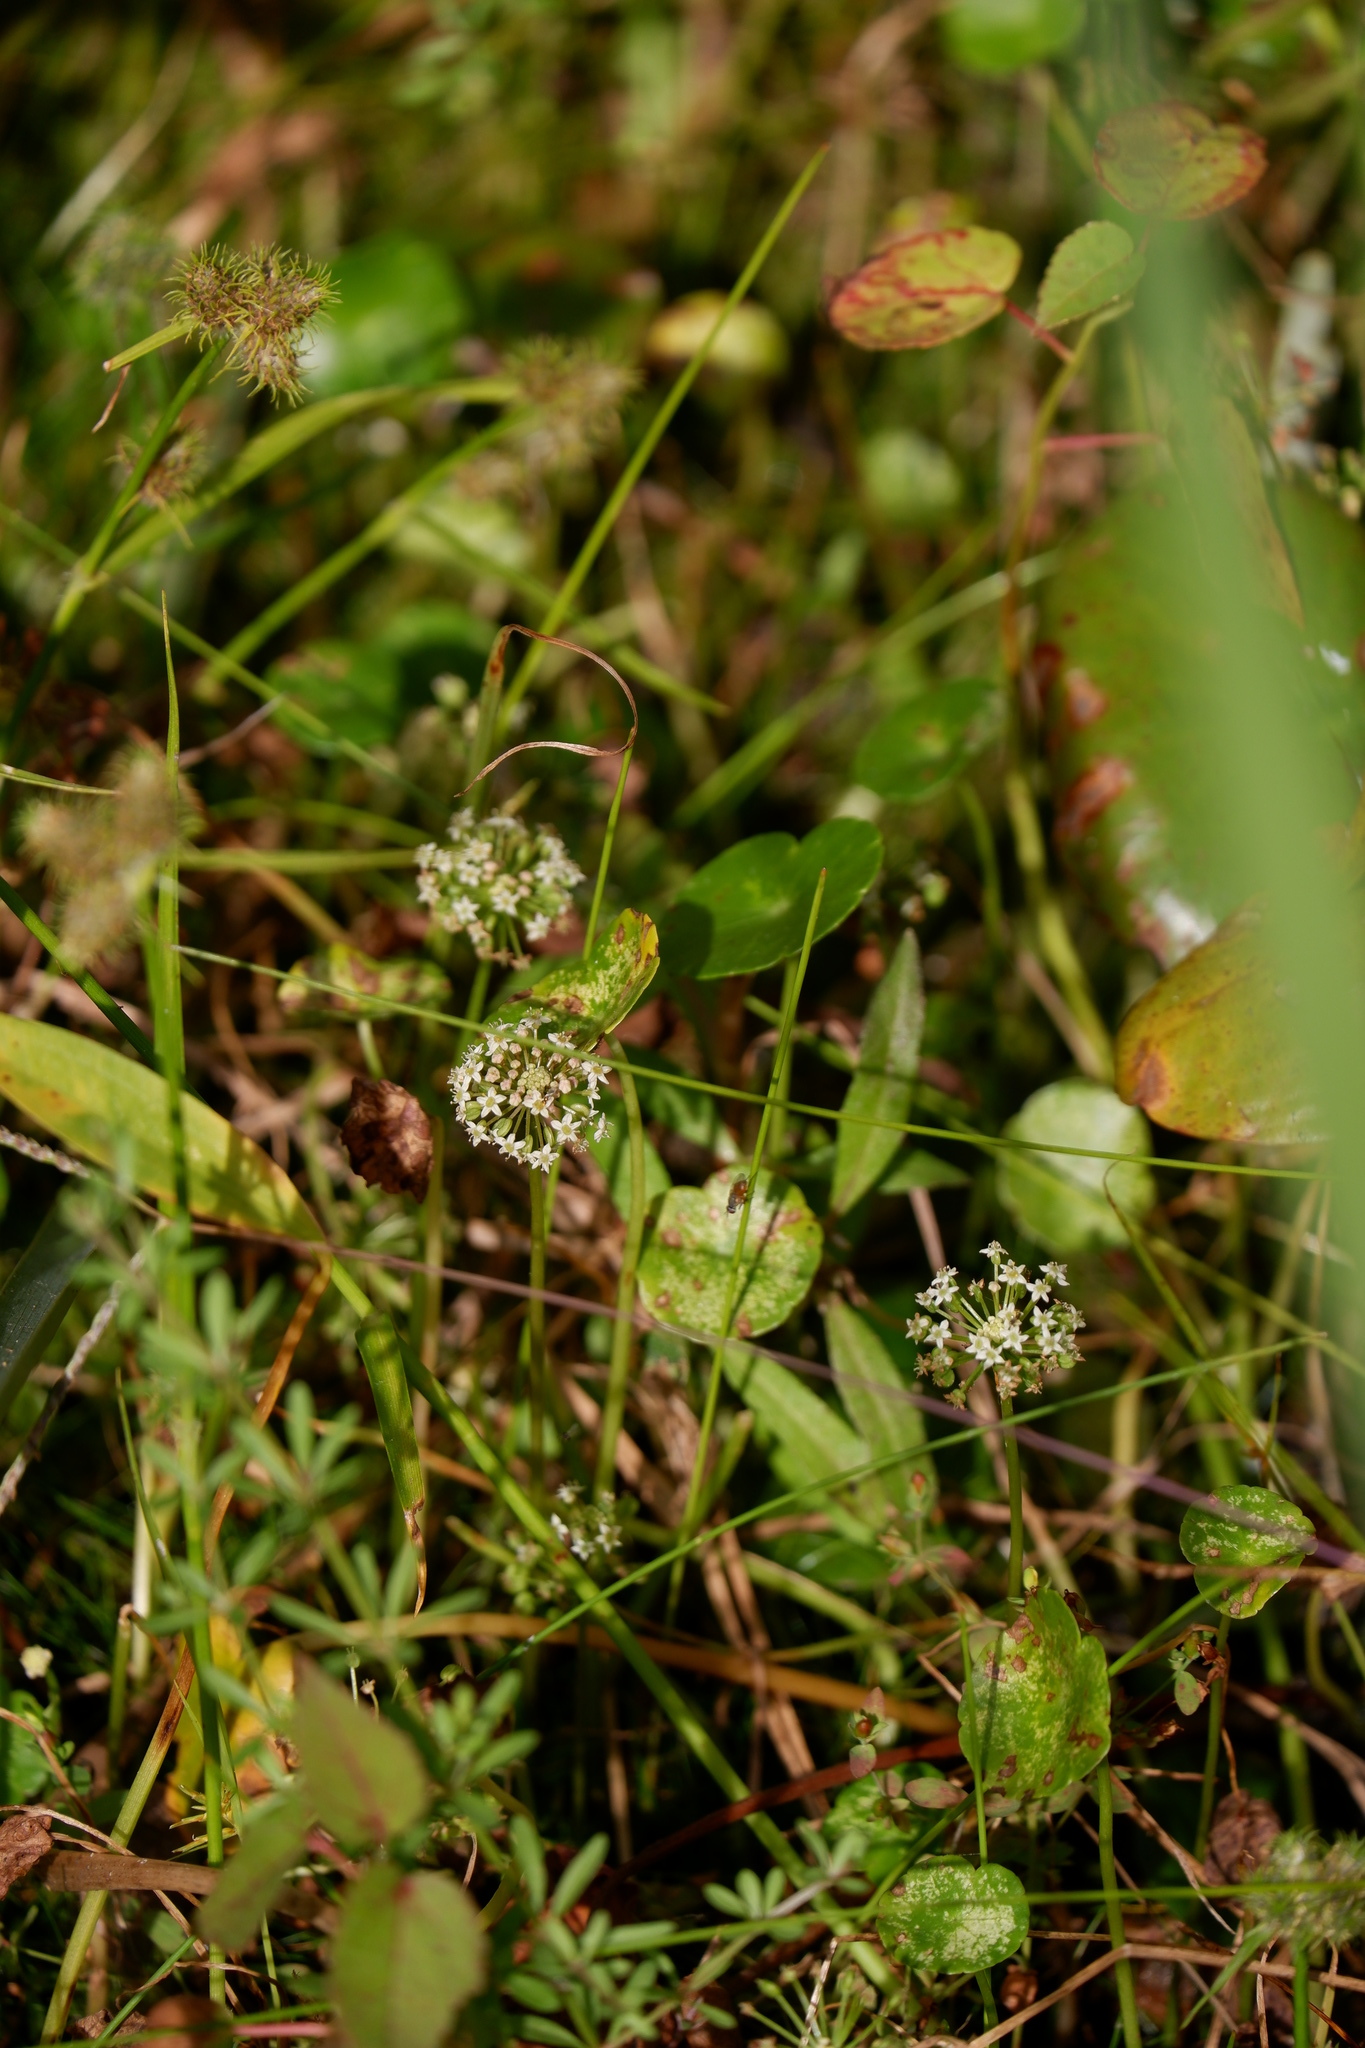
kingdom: Plantae
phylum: Tracheophyta
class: Magnoliopsida
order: Apiales
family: Araliaceae
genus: Hydrocotyle
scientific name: Hydrocotyle umbellata
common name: Water pennywort
